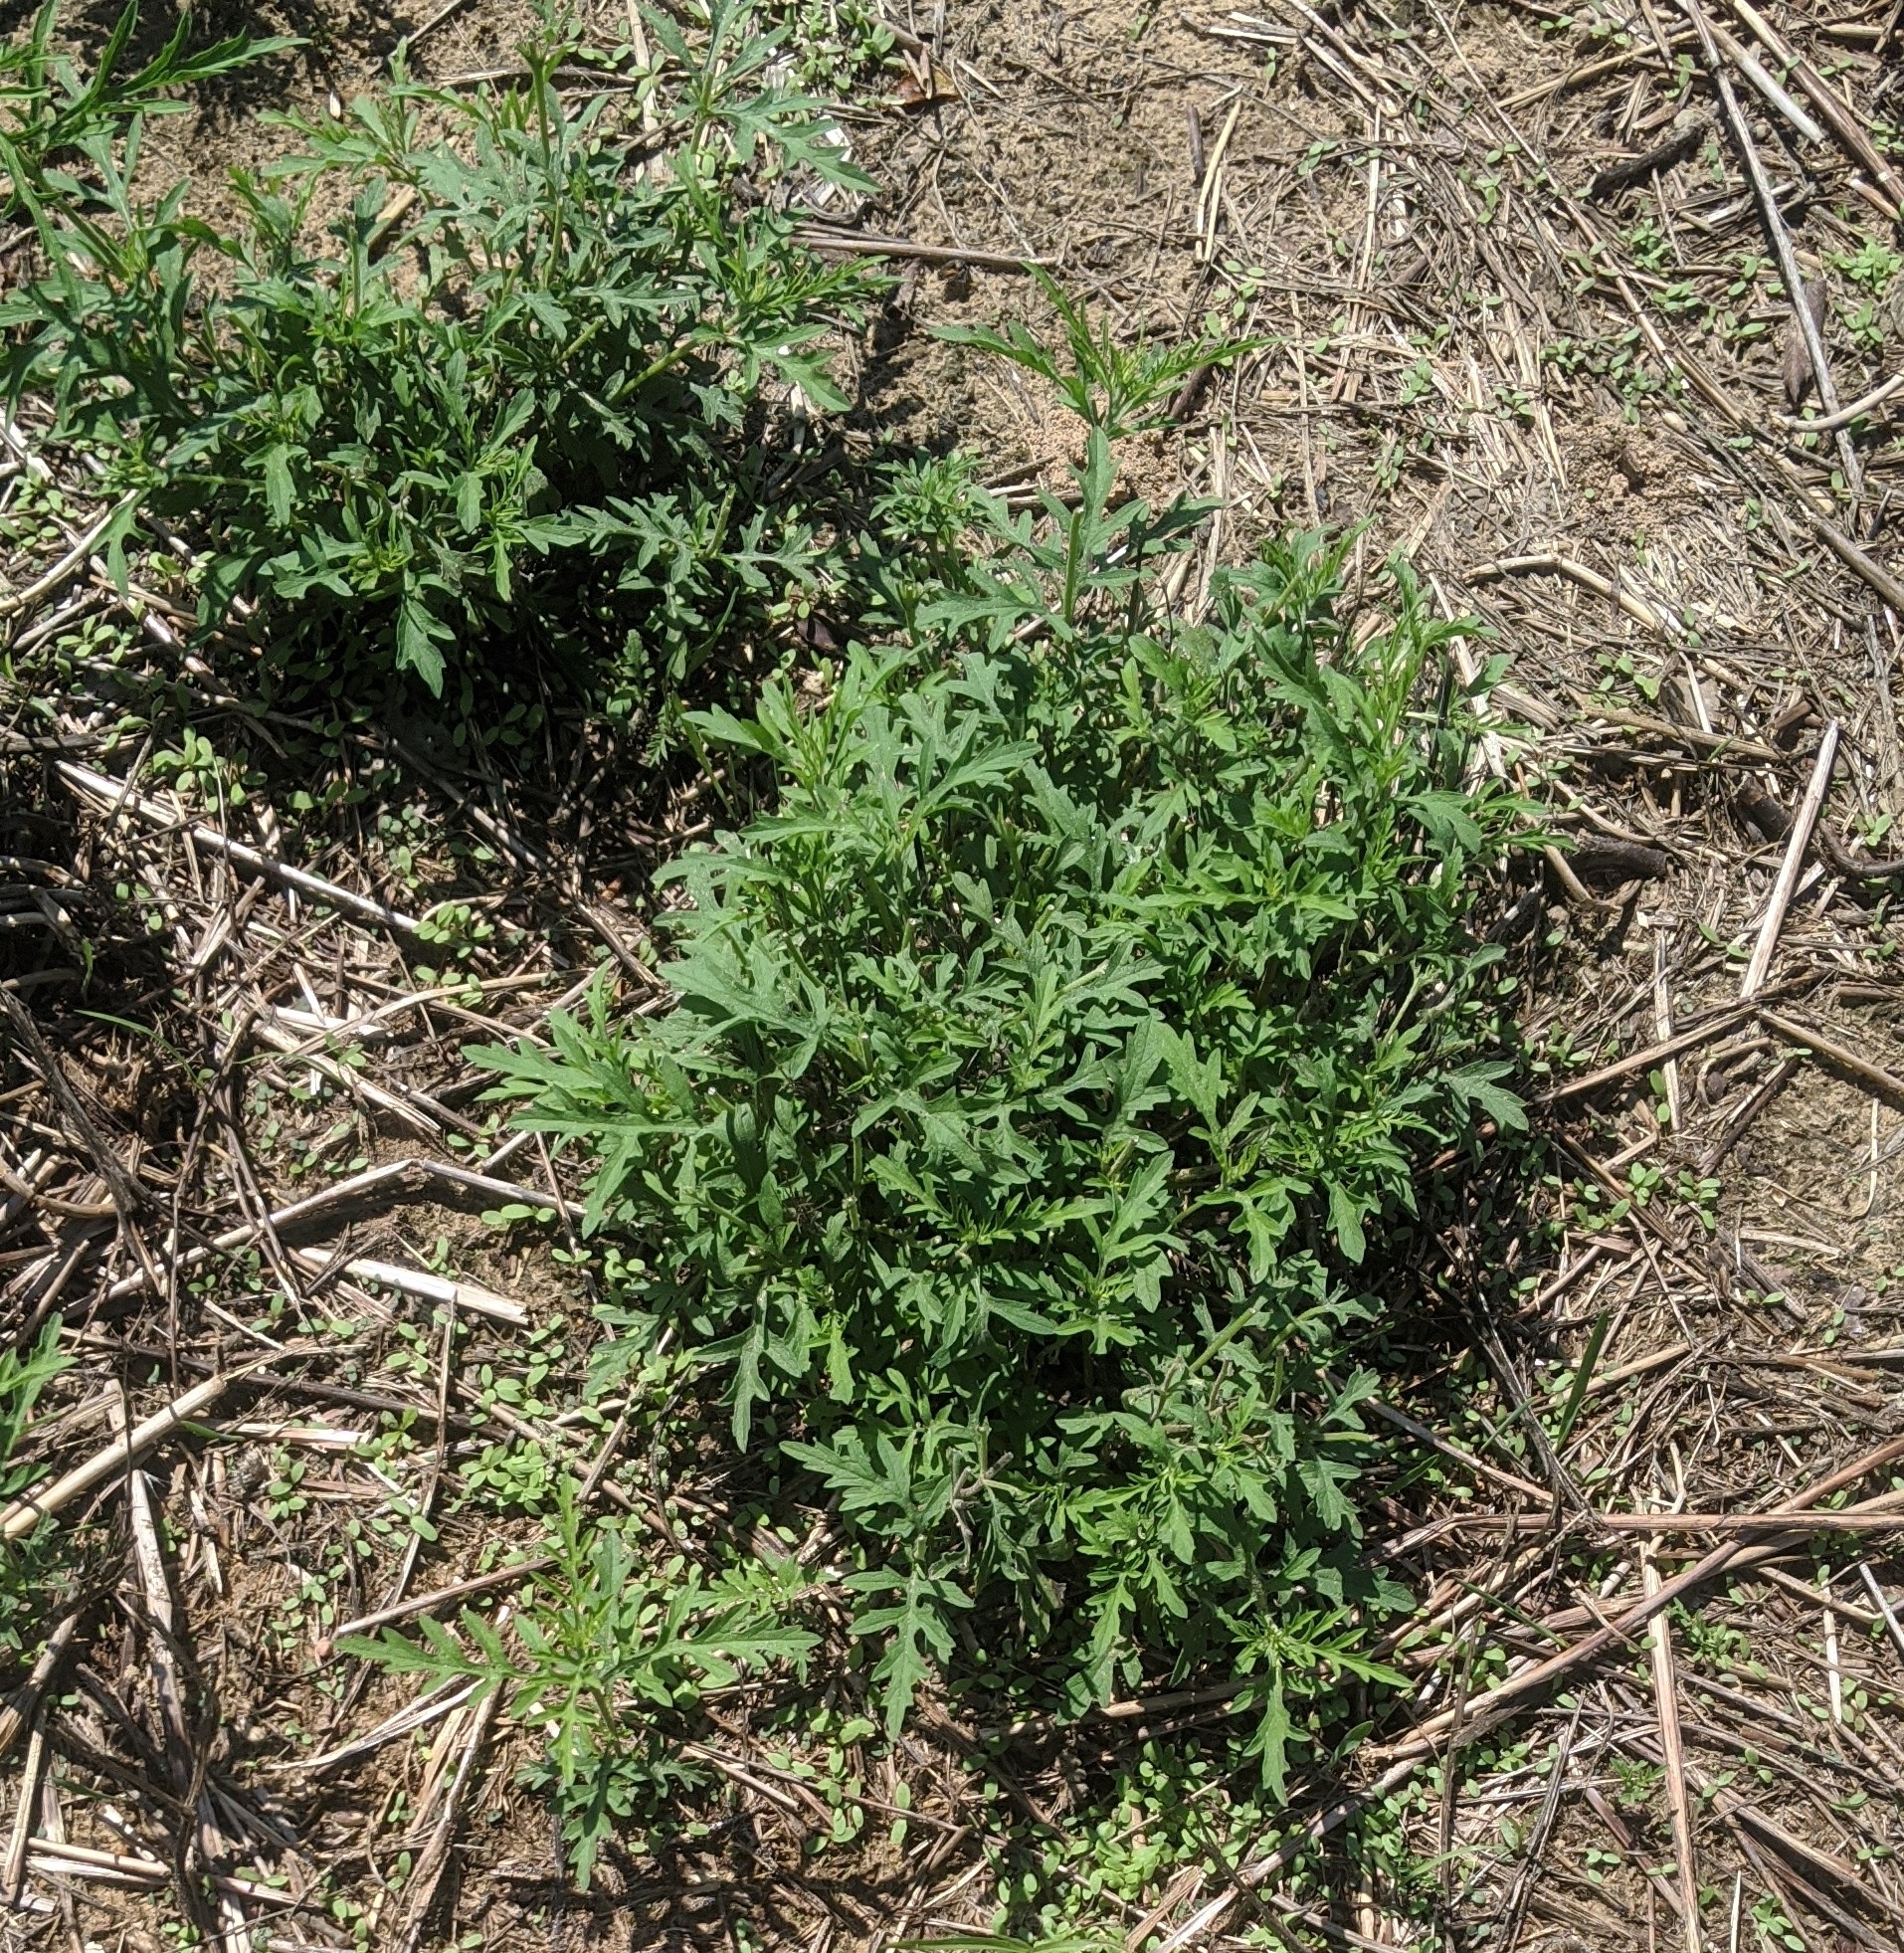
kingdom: Plantae
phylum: Tracheophyta
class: Magnoliopsida
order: Asterales
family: Asteraceae
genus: Ambrosia
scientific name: Ambrosia psilostachya
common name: Perennial ragweed
